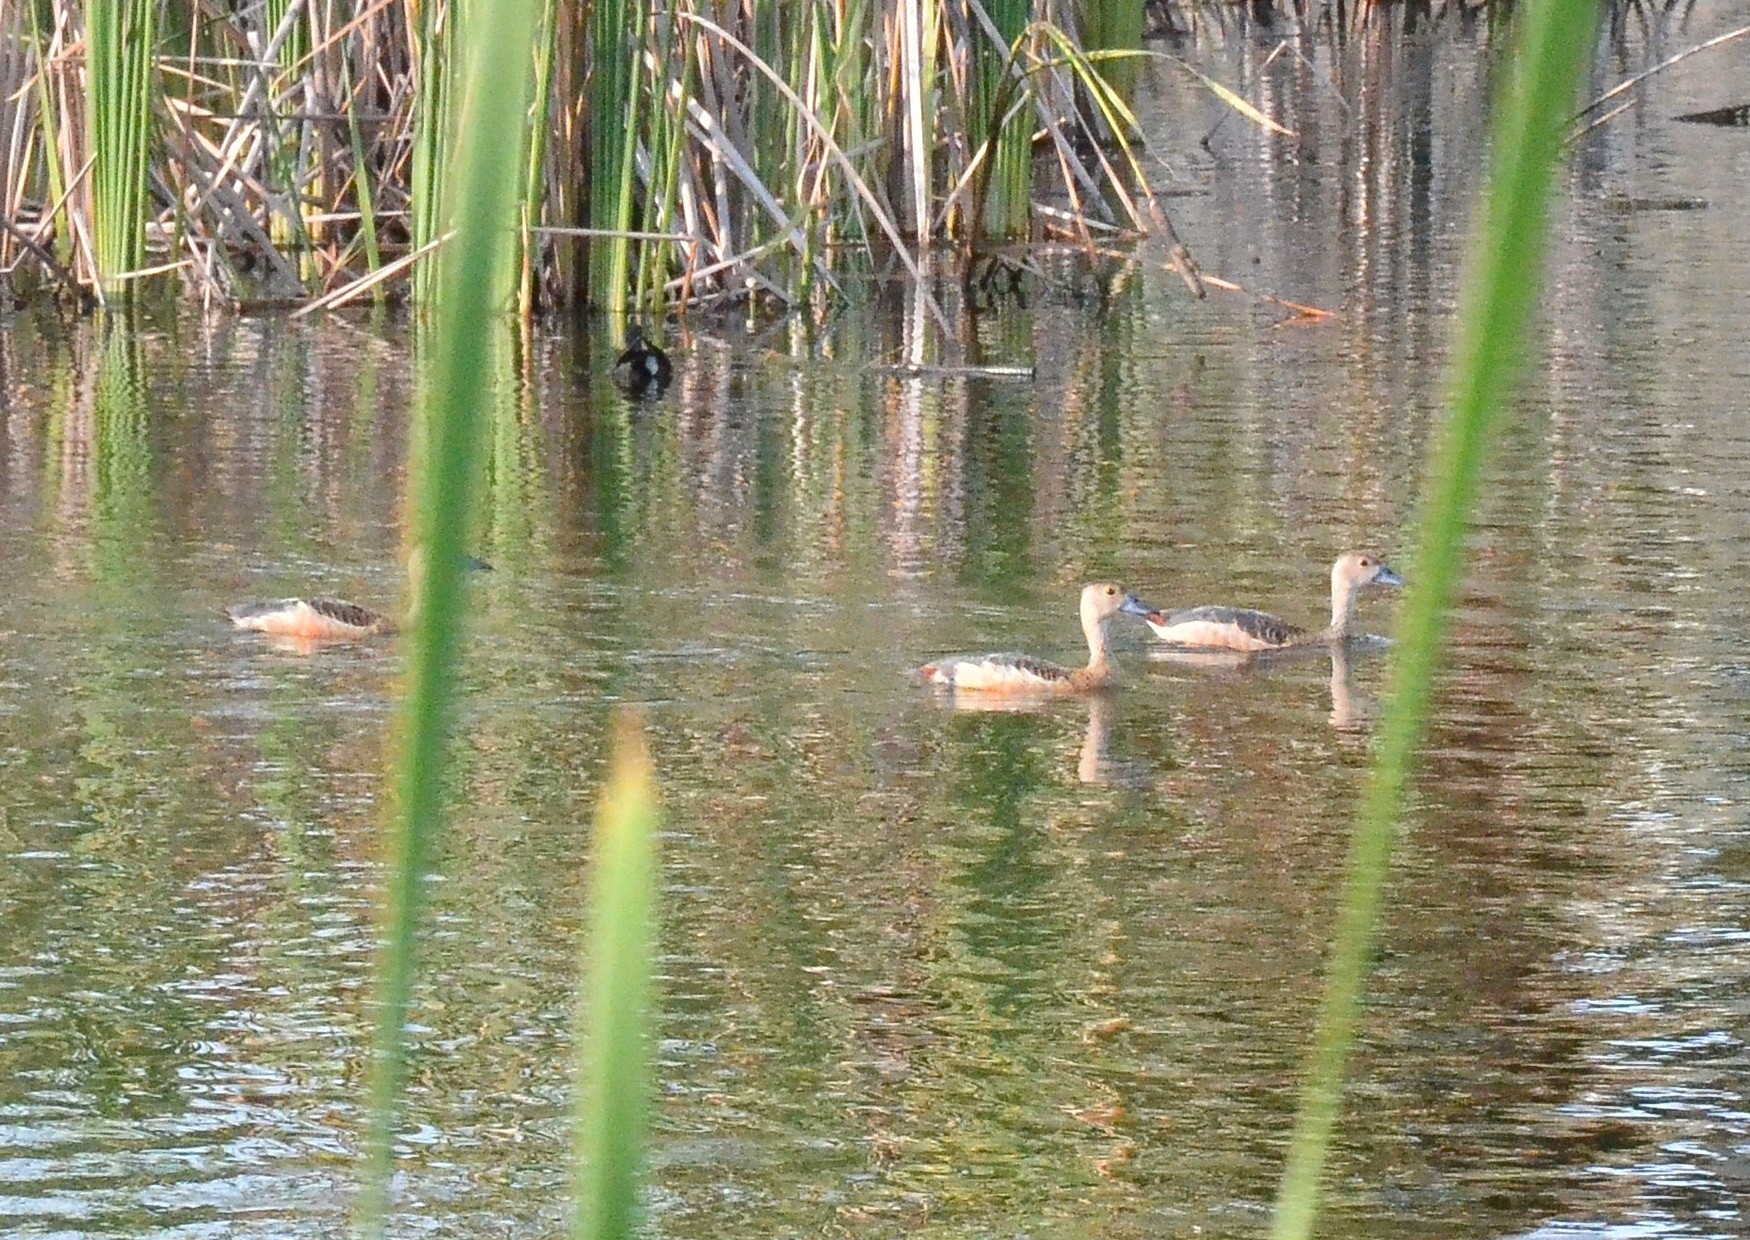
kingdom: Animalia
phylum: Chordata
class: Aves
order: Anseriformes
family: Anatidae
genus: Dendrocygna
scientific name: Dendrocygna javanica
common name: Lesser whistling-duck
